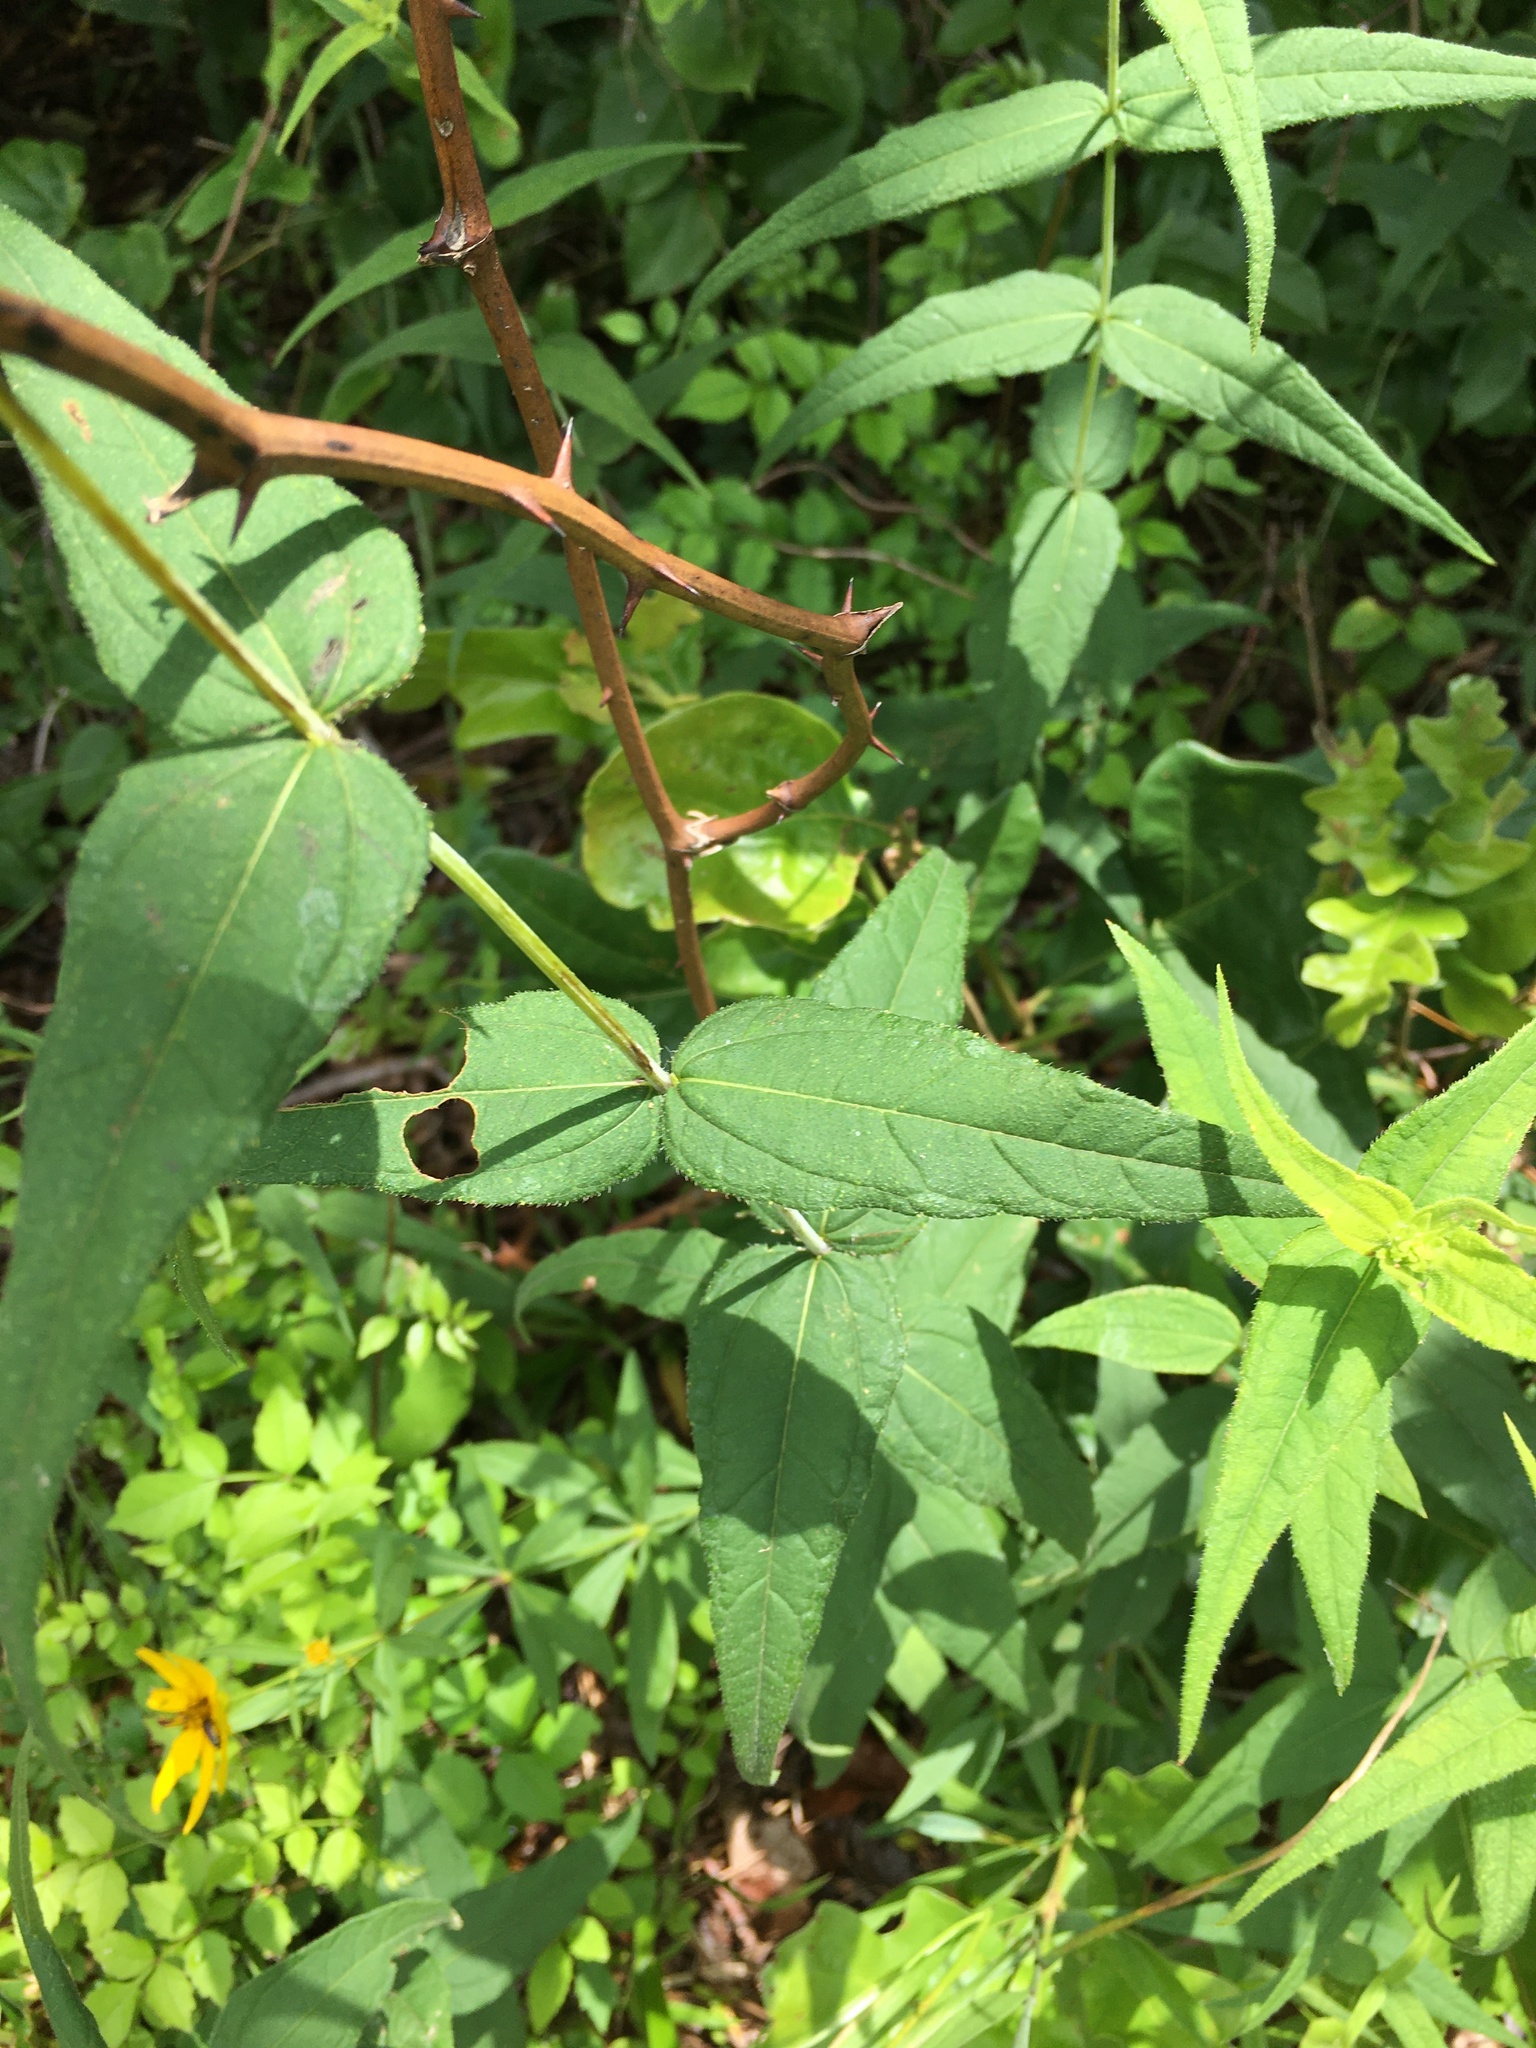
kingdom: Plantae
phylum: Tracheophyta
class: Magnoliopsida
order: Asterales
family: Asteraceae
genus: Helianthus
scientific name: Helianthus divaricatus
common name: Divergent sunflower
